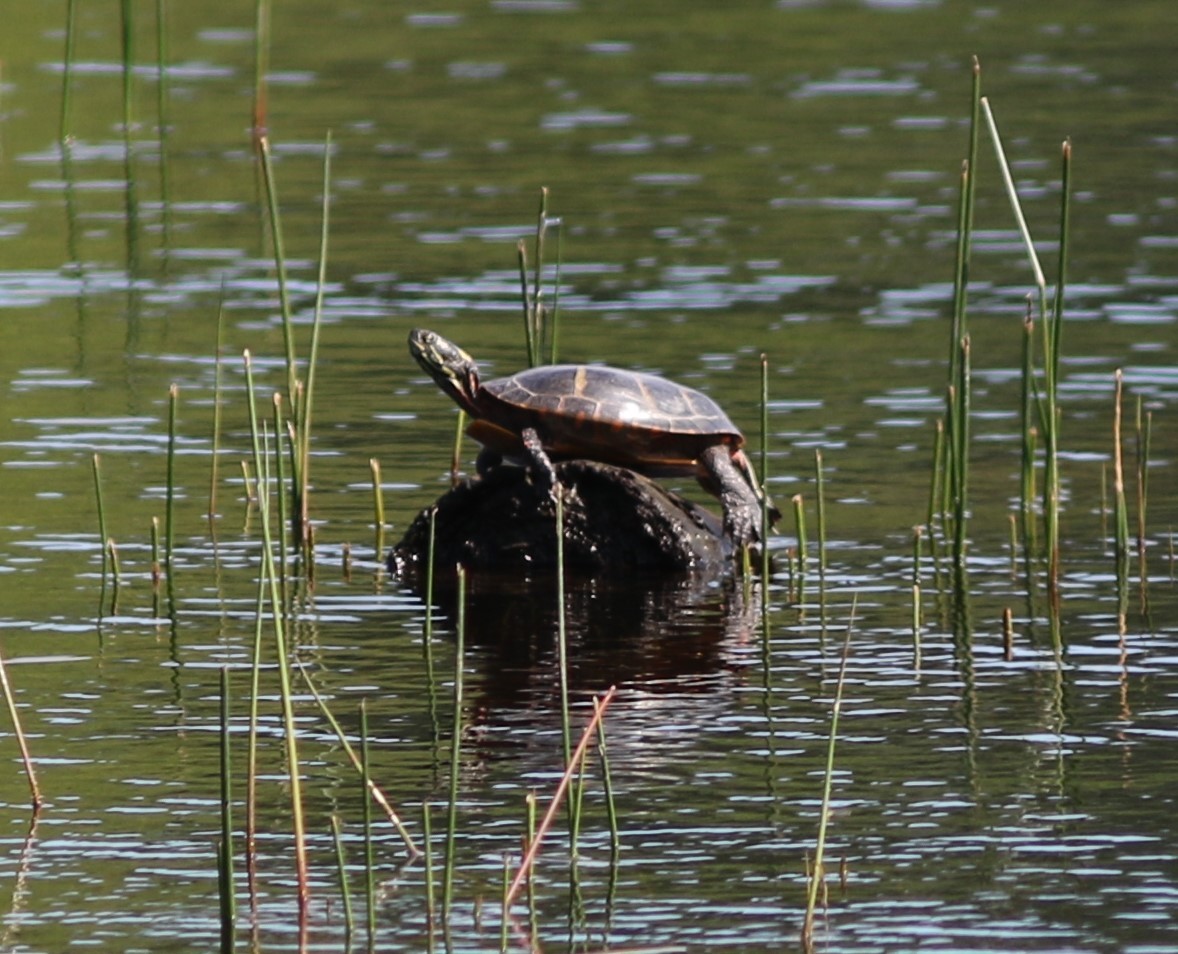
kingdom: Animalia
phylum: Chordata
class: Testudines
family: Emydidae
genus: Chrysemys
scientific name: Chrysemys picta
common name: Painted turtle
